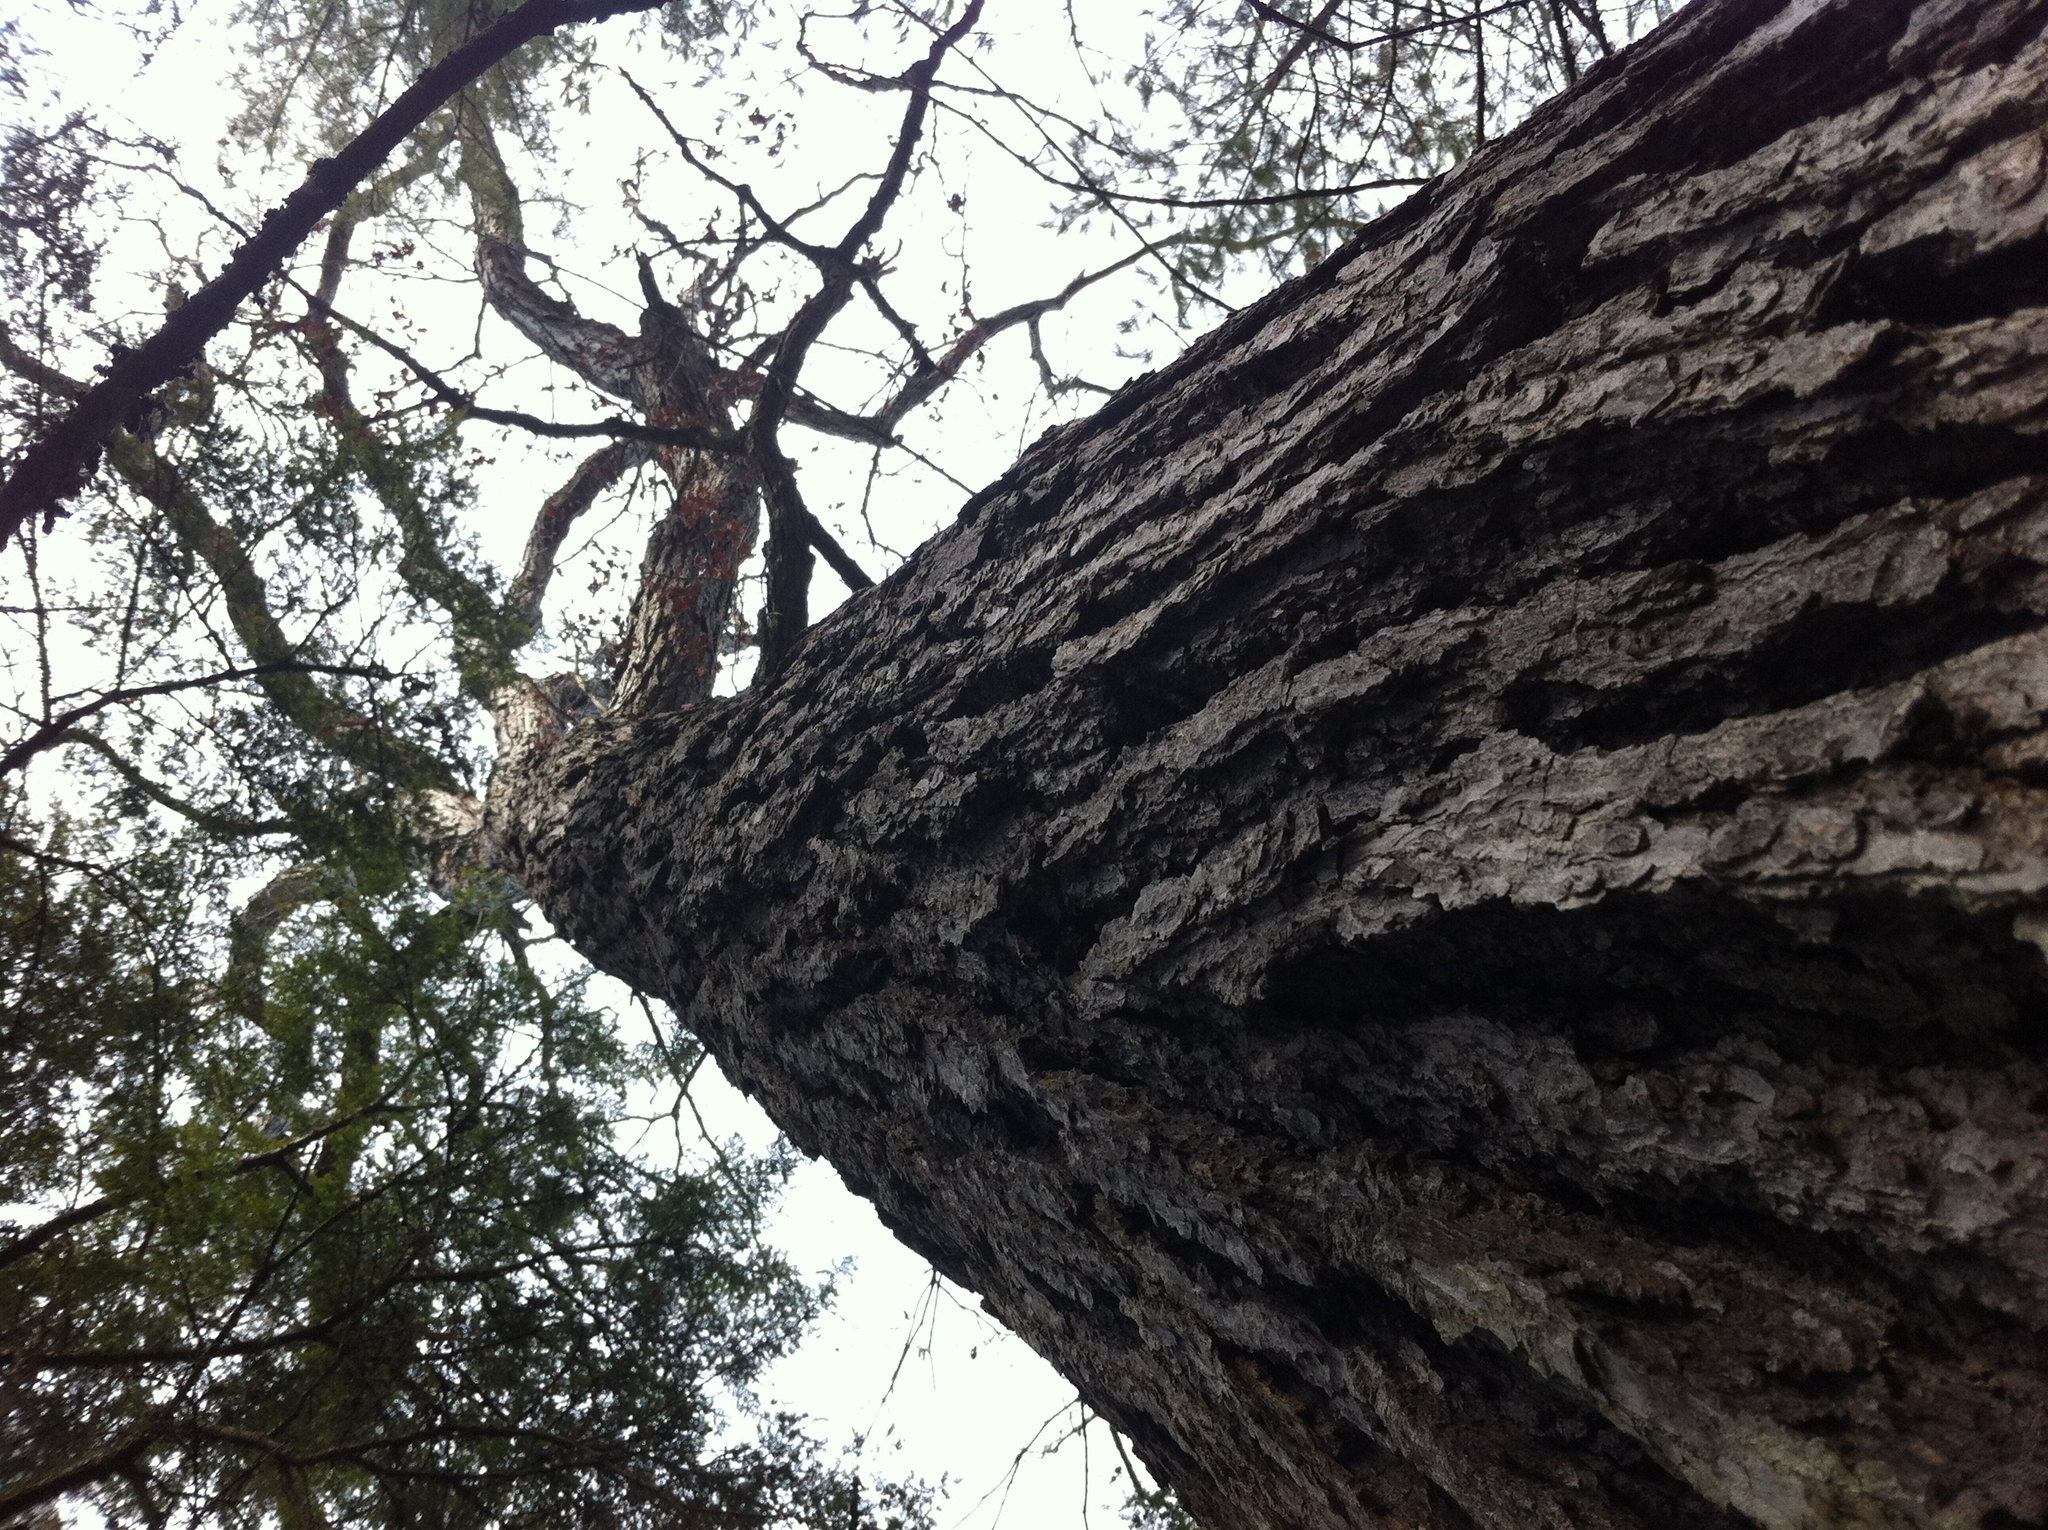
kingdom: Plantae
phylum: Tracheophyta
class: Magnoliopsida
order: Fagales
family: Fagaceae
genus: Quercus
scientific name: Quercus alba
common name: White oak
